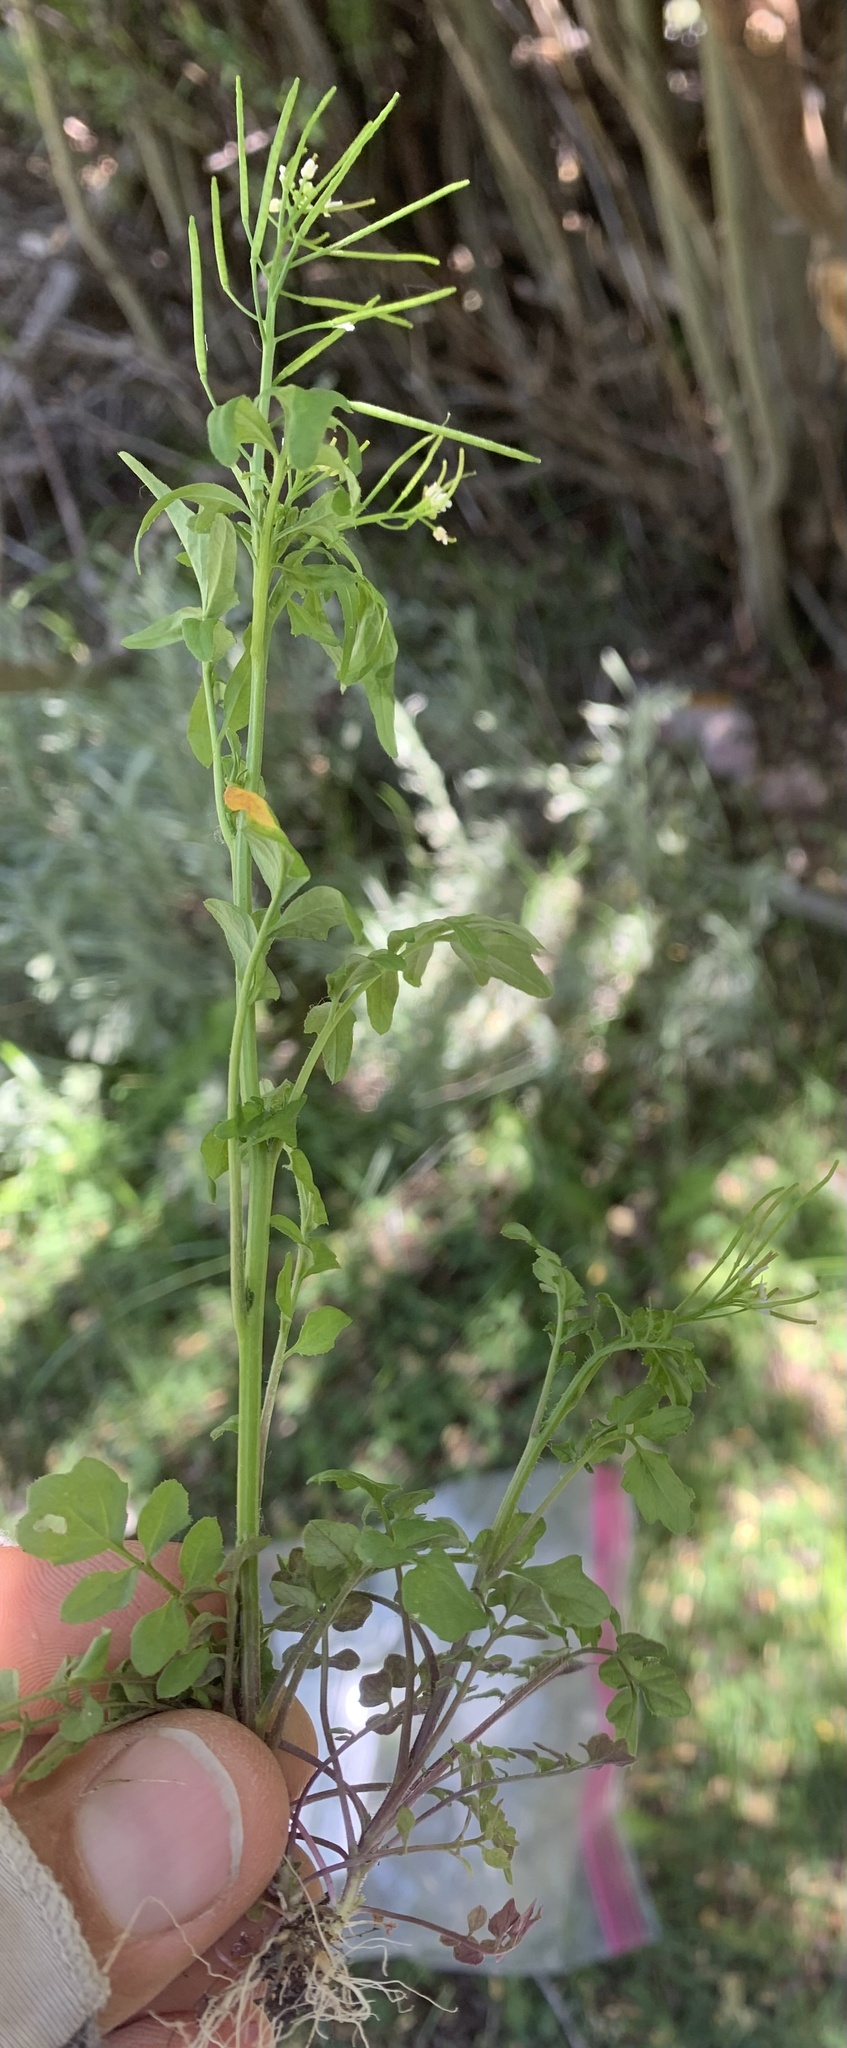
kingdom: Plantae
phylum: Tracheophyta
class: Magnoliopsida
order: Brassicales
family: Brassicaceae
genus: Cardamine
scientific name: Cardamine pensylvanica
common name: Pennsylvania bittercress
